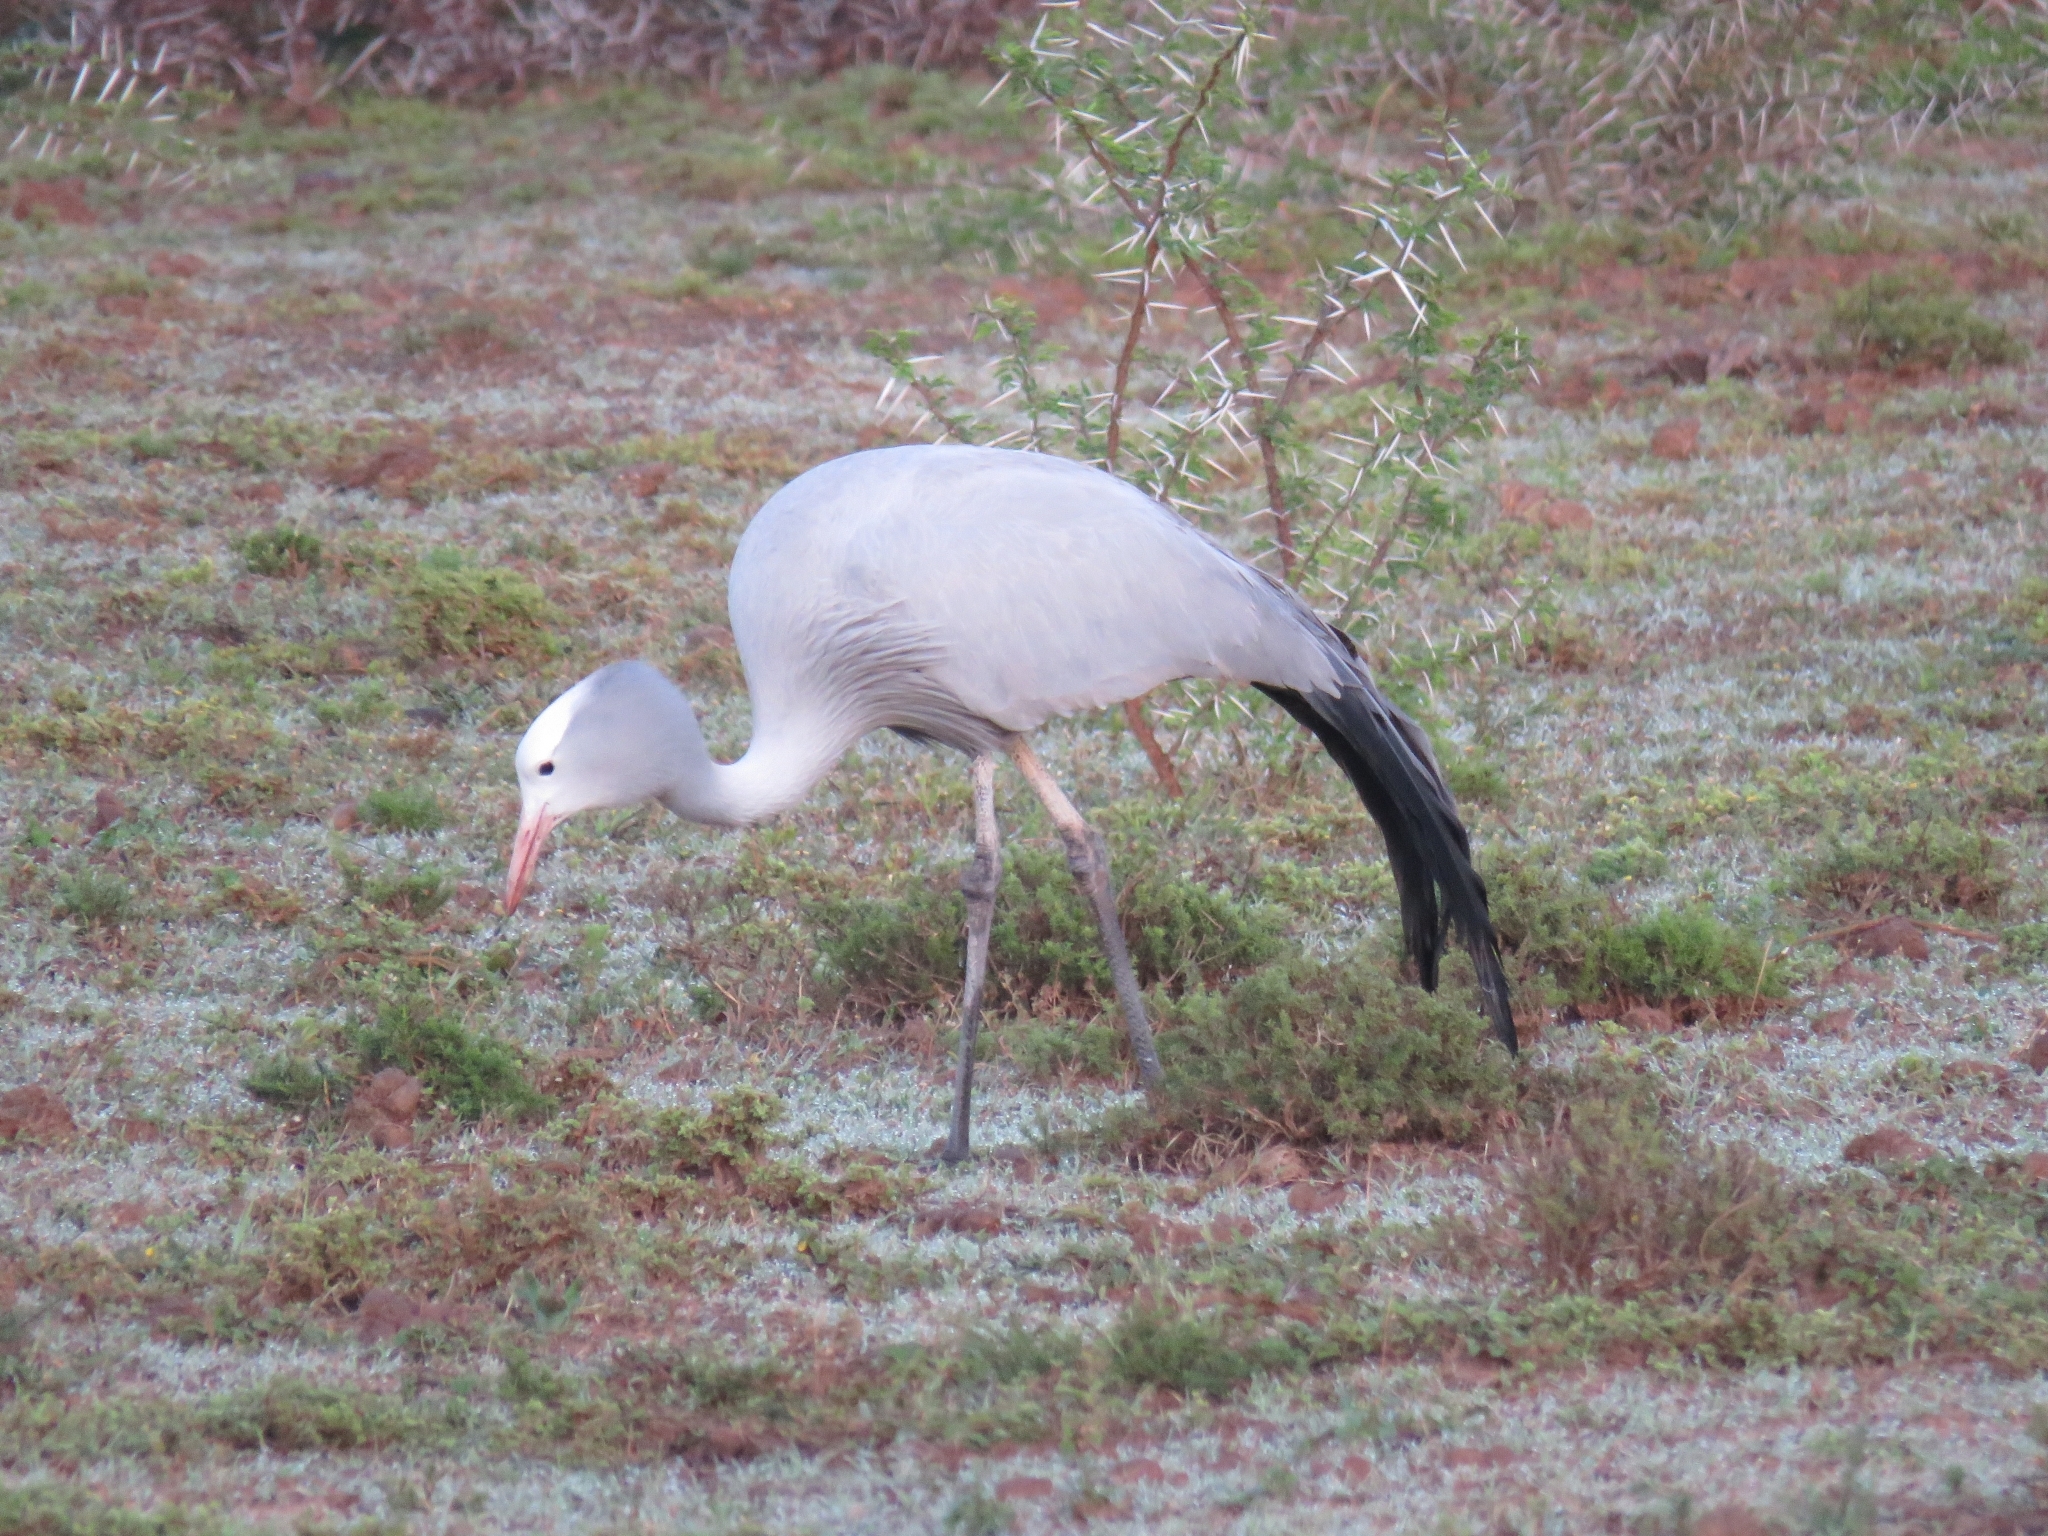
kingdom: Animalia
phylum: Chordata
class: Aves
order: Gruiformes
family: Gruidae
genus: Anthropoides
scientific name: Anthropoides paradiseus
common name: Blue crane
